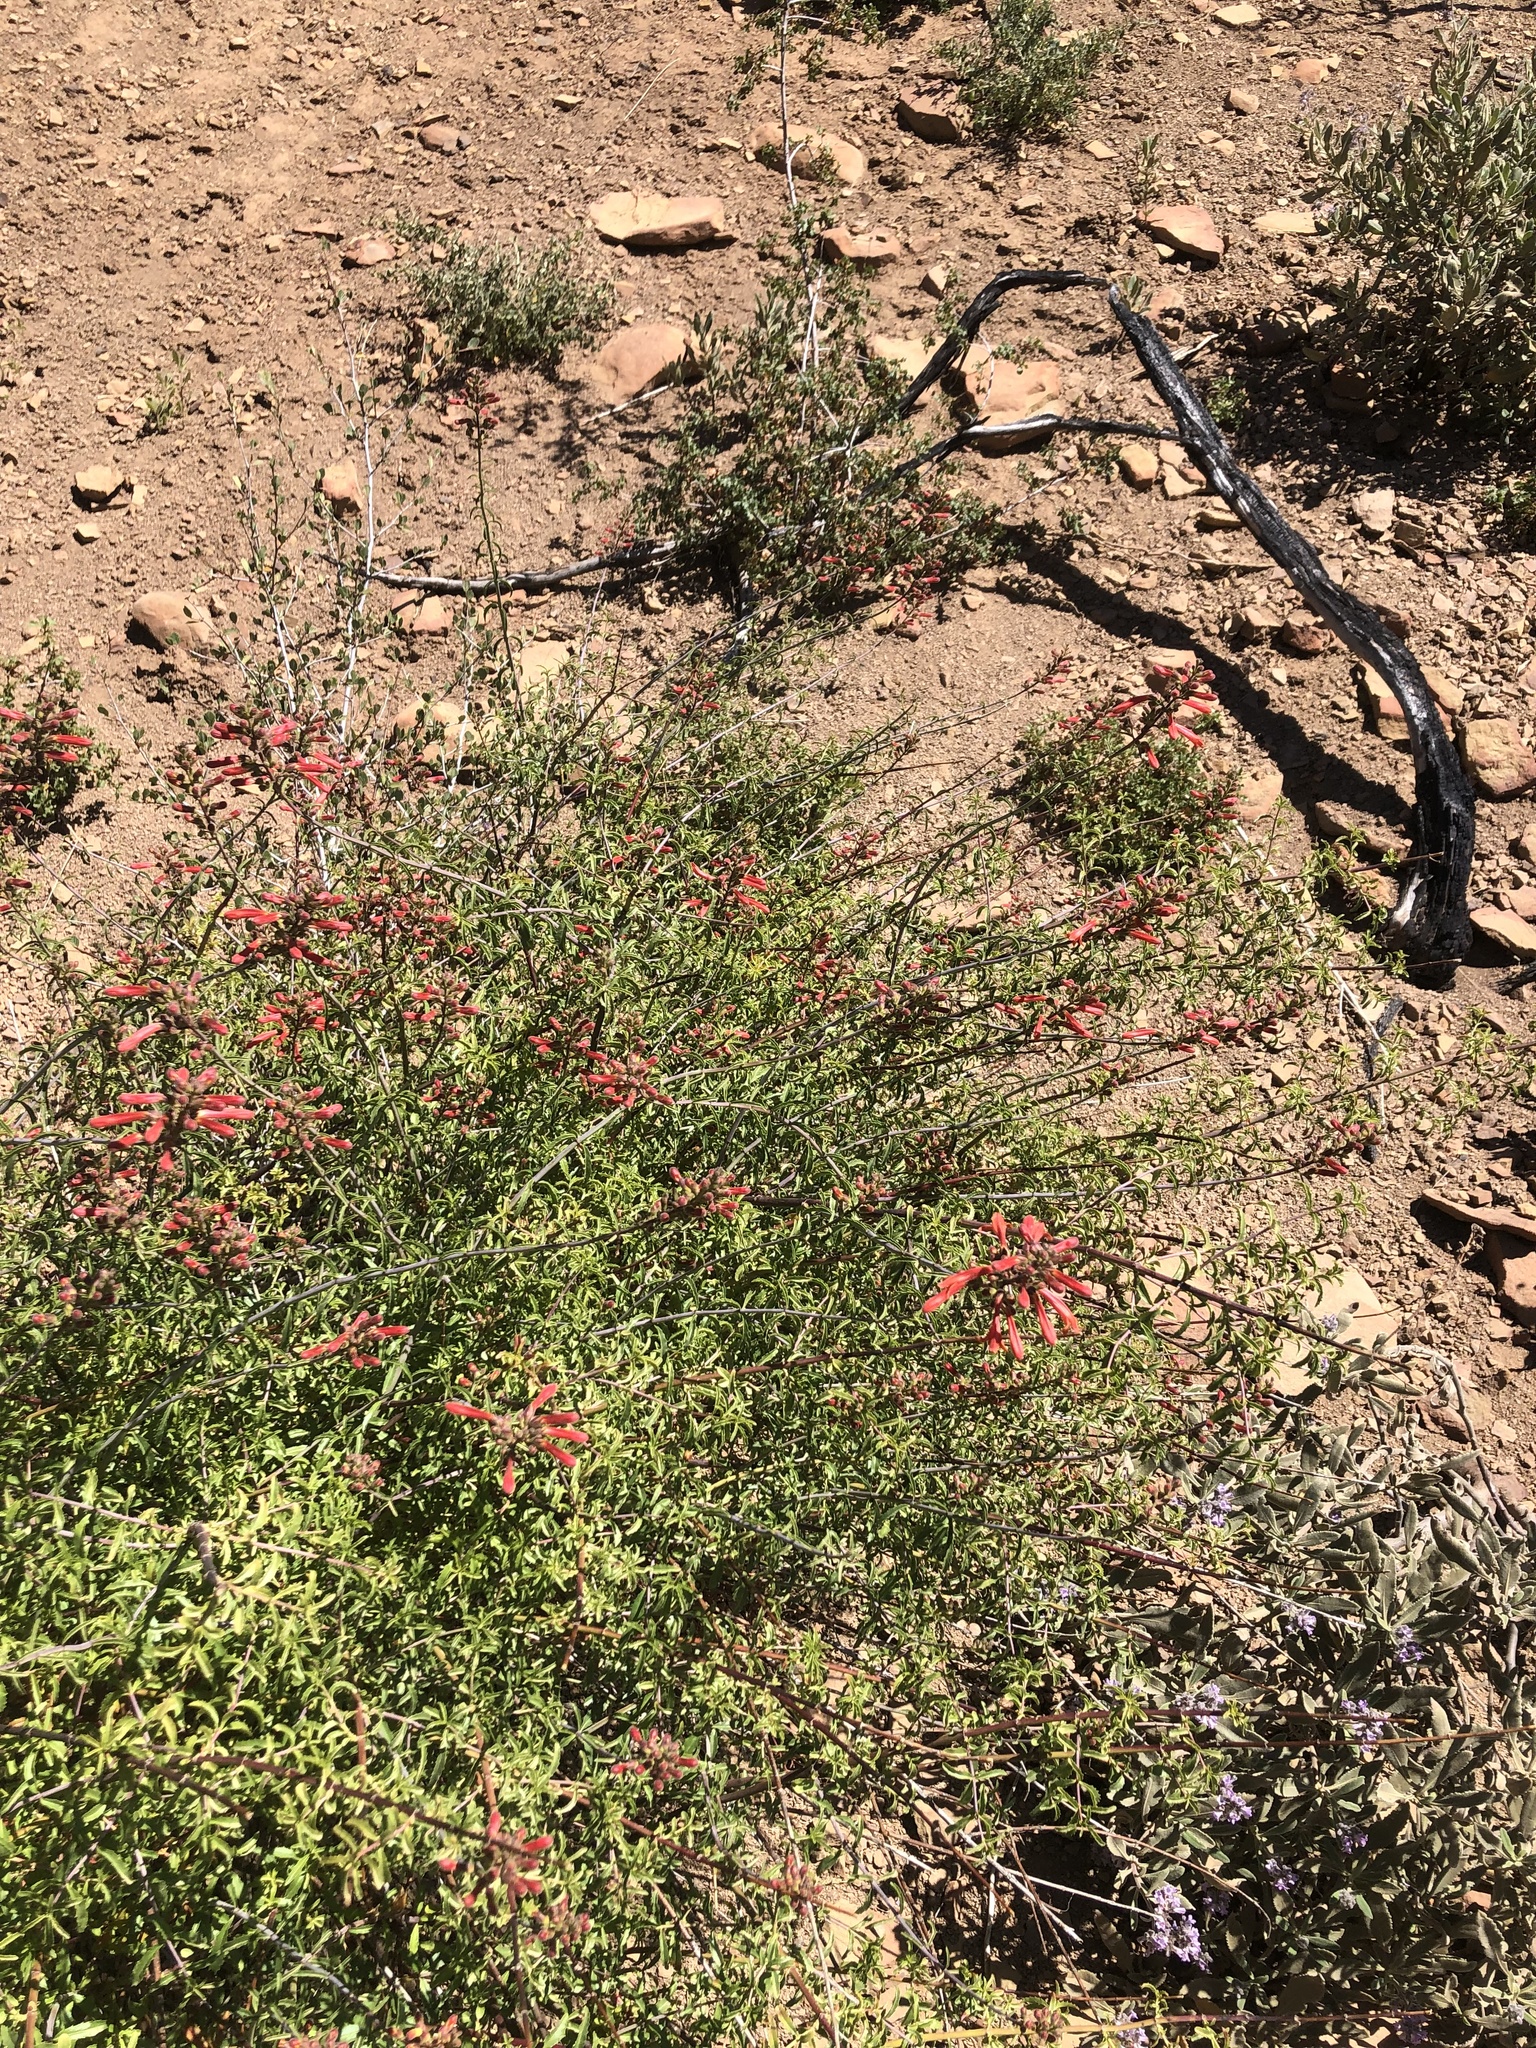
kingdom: Plantae
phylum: Tracheophyta
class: Magnoliopsida
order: Lamiales
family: Plantaginaceae
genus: Keckiella
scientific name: Keckiella ternata
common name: Scarlet keckiella
